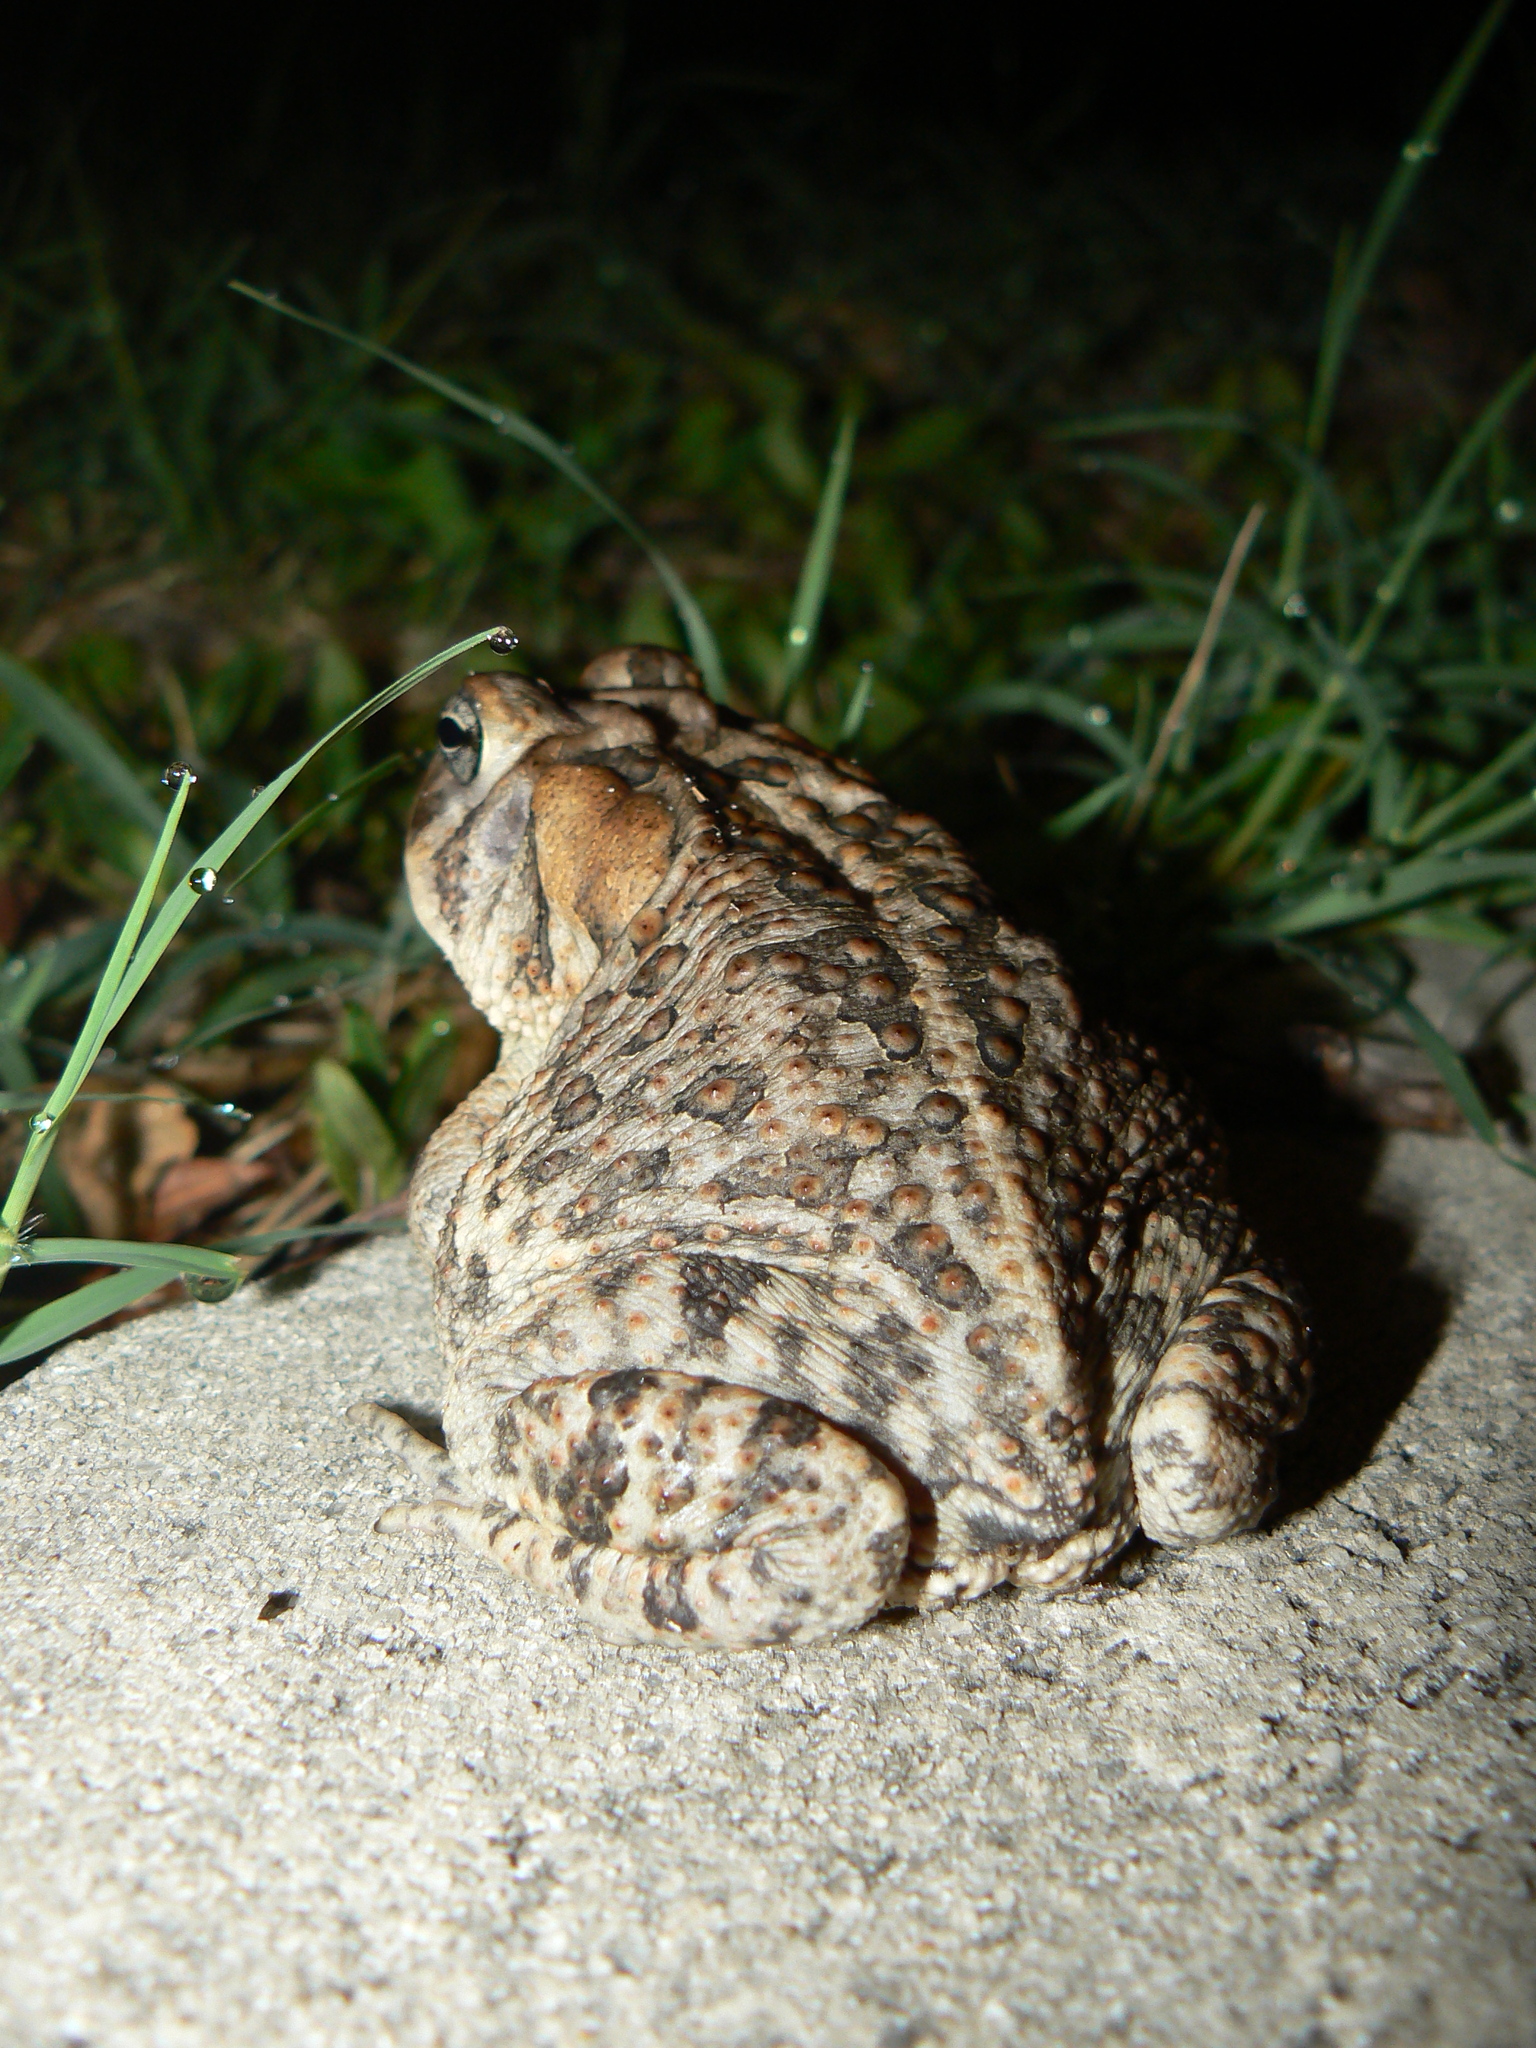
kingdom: Animalia
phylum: Chordata
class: Amphibia
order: Anura
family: Bufonidae
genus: Anaxyrus
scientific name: Anaxyrus terrestris
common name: Southern toad
